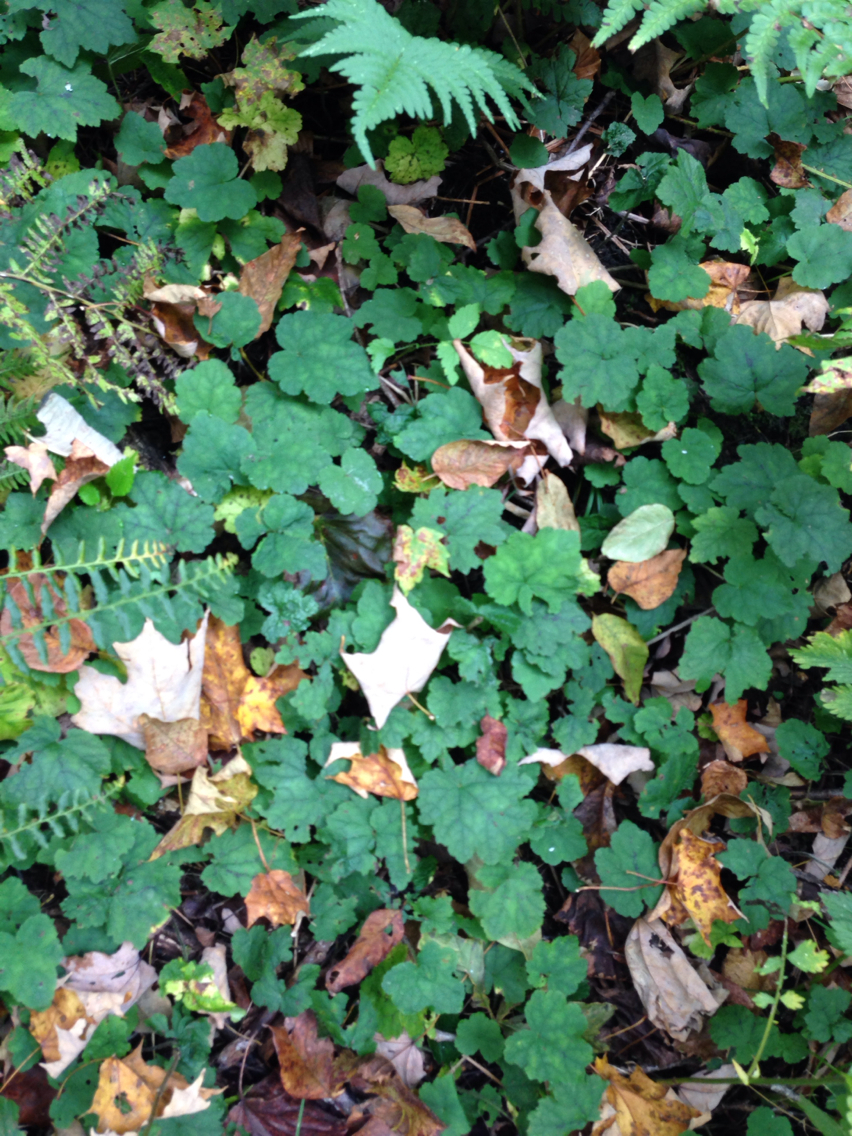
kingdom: Plantae
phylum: Tracheophyta
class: Magnoliopsida
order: Saxifragales
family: Saxifragaceae
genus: Tiarella
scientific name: Tiarella stolonifera
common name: Stoloniferous foamflower
